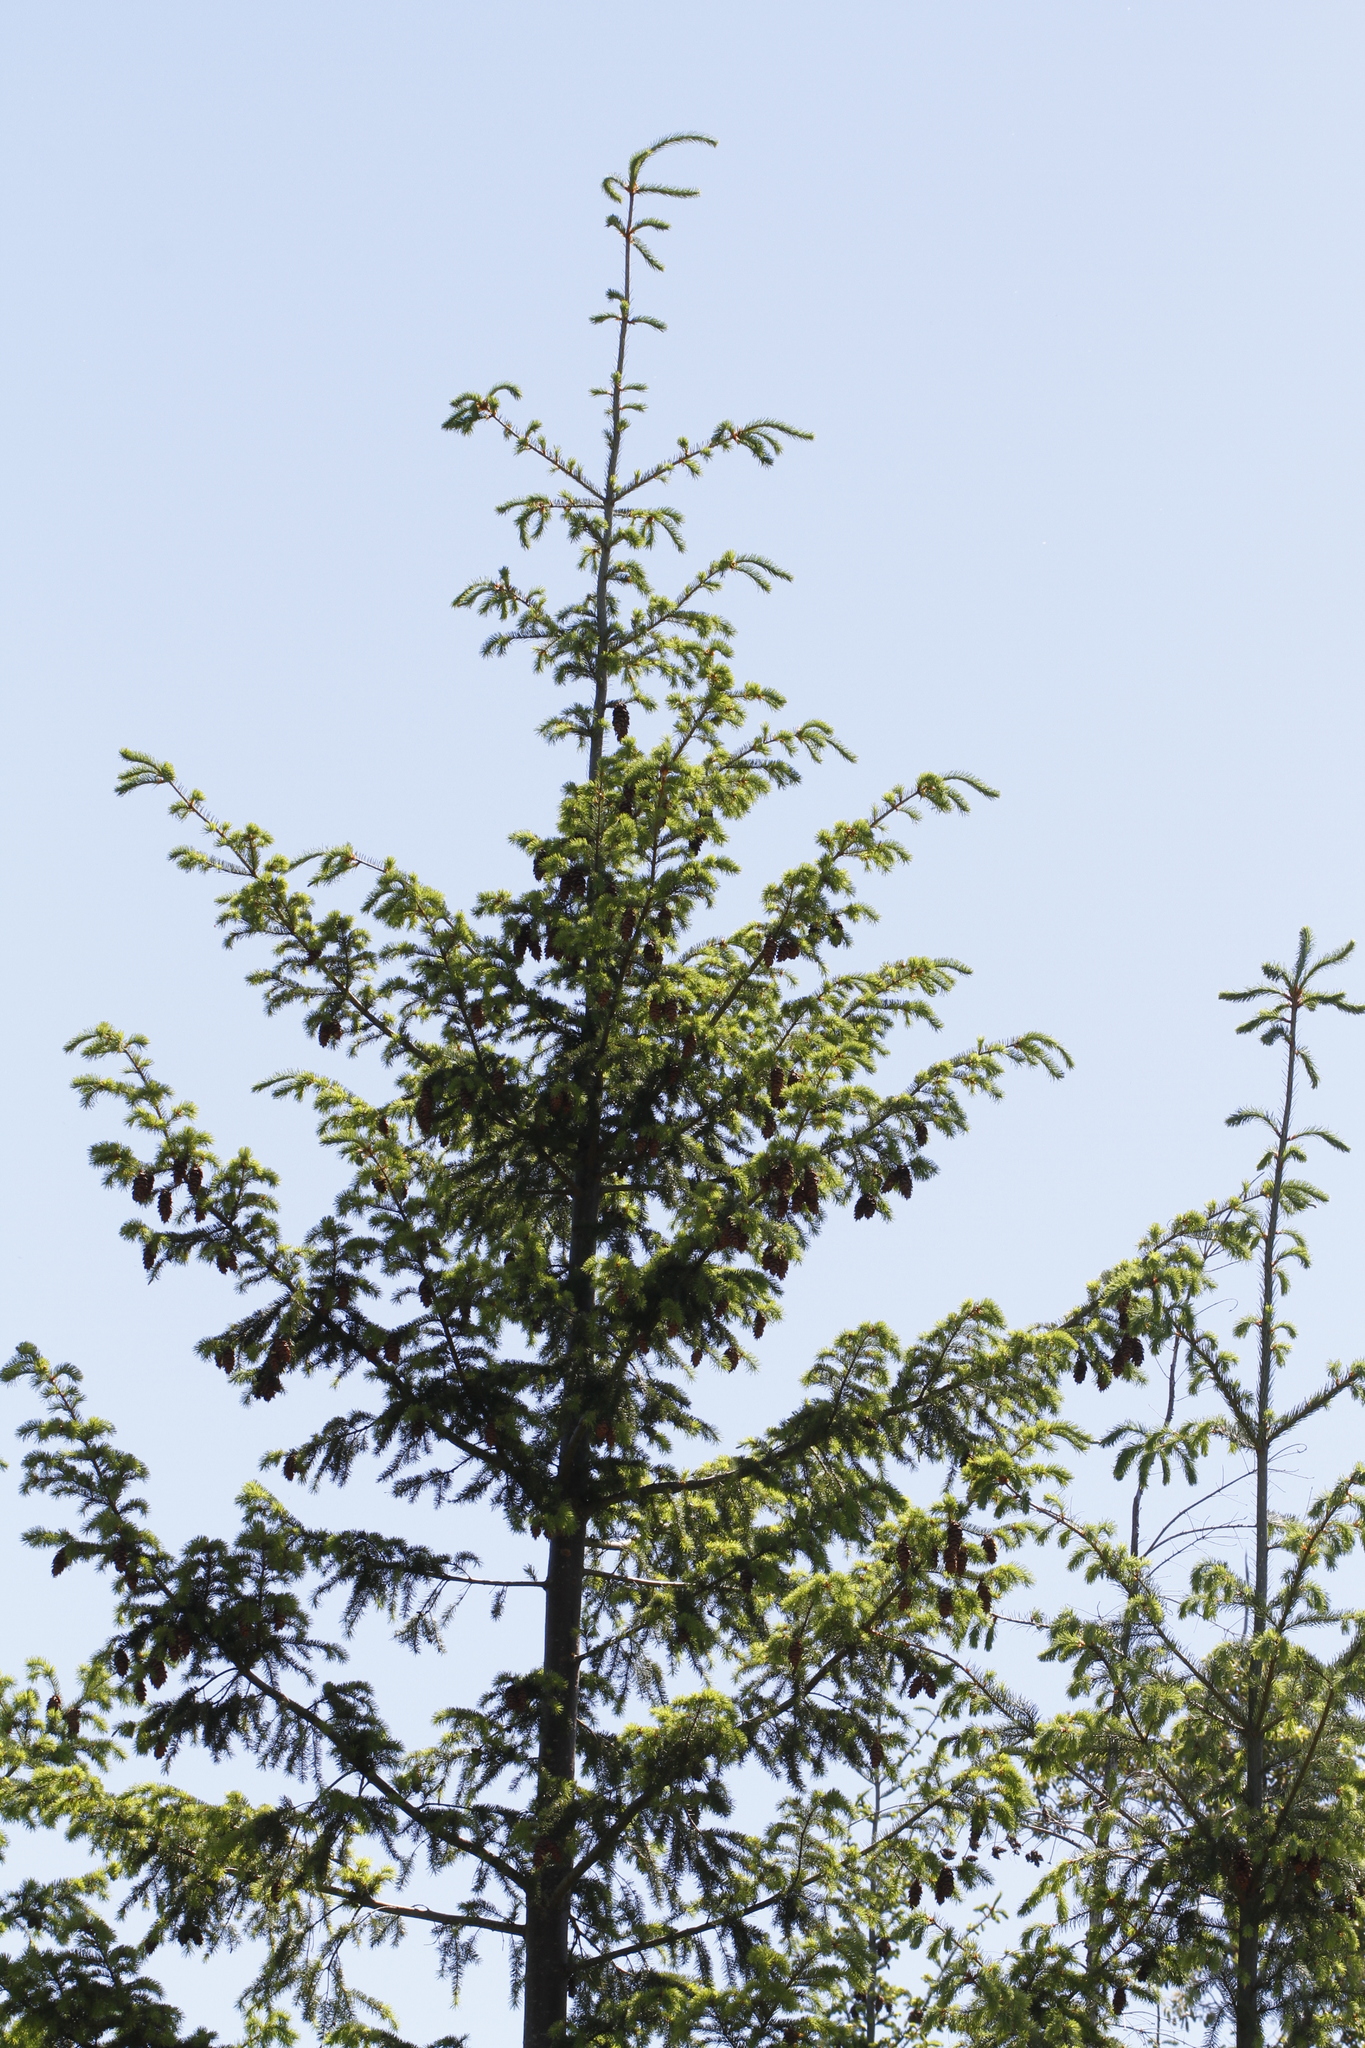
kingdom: Plantae
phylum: Tracheophyta
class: Pinopsida
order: Pinales
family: Pinaceae
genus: Pseudotsuga
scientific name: Pseudotsuga menziesii
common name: Douglas fir
